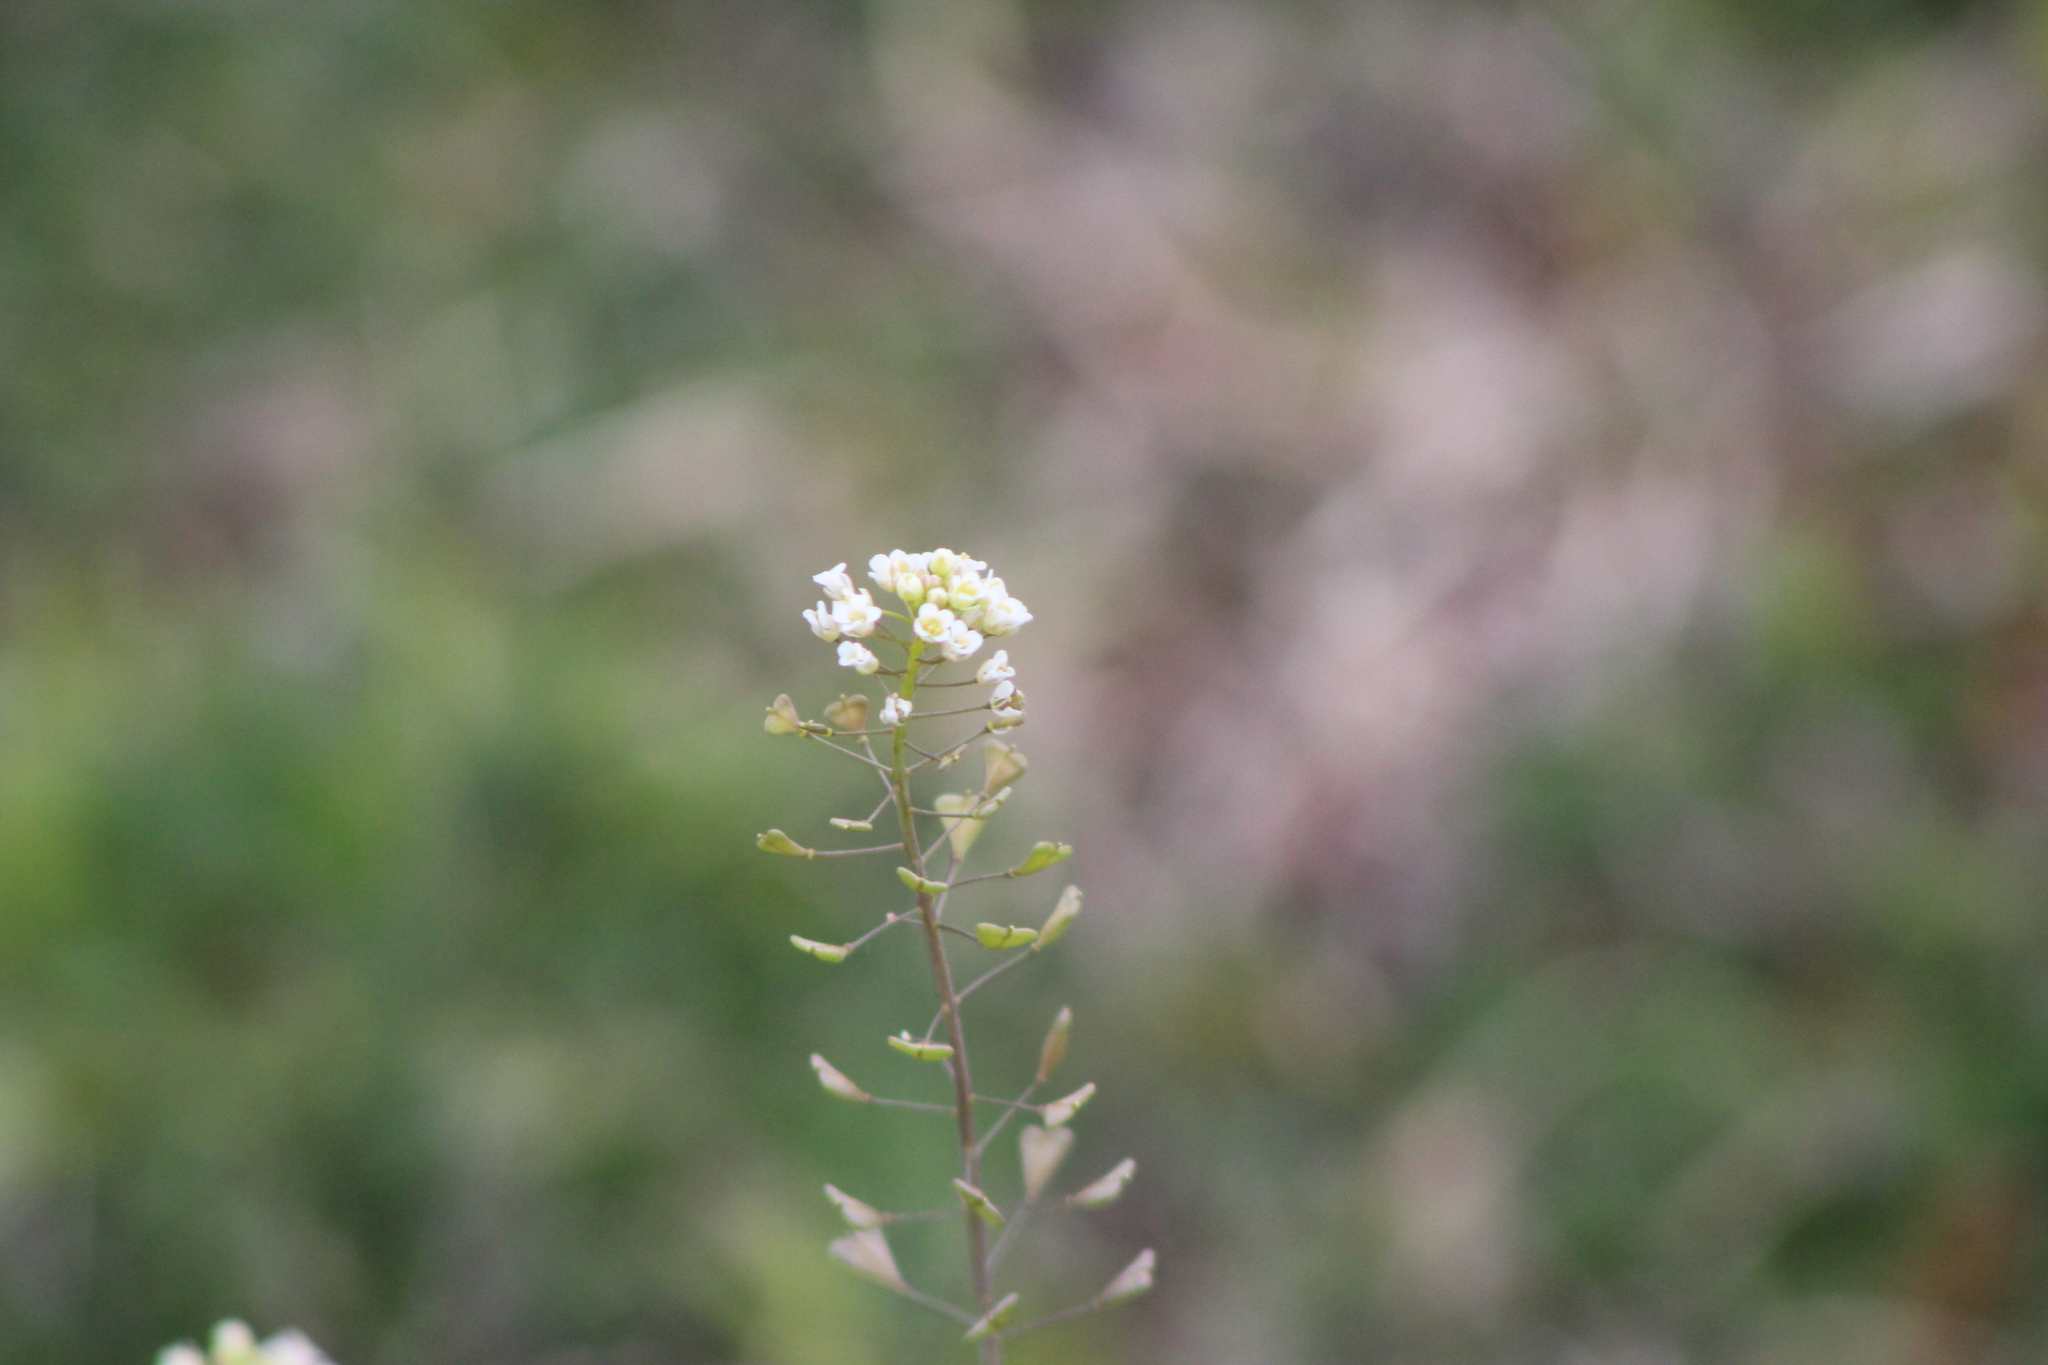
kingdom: Plantae
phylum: Tracheophyta
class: Magnoliopsida
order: Brassicales
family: Brassicaceae
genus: Capsella
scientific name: Capsella bursa-pastoris
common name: Shepherd's purse
